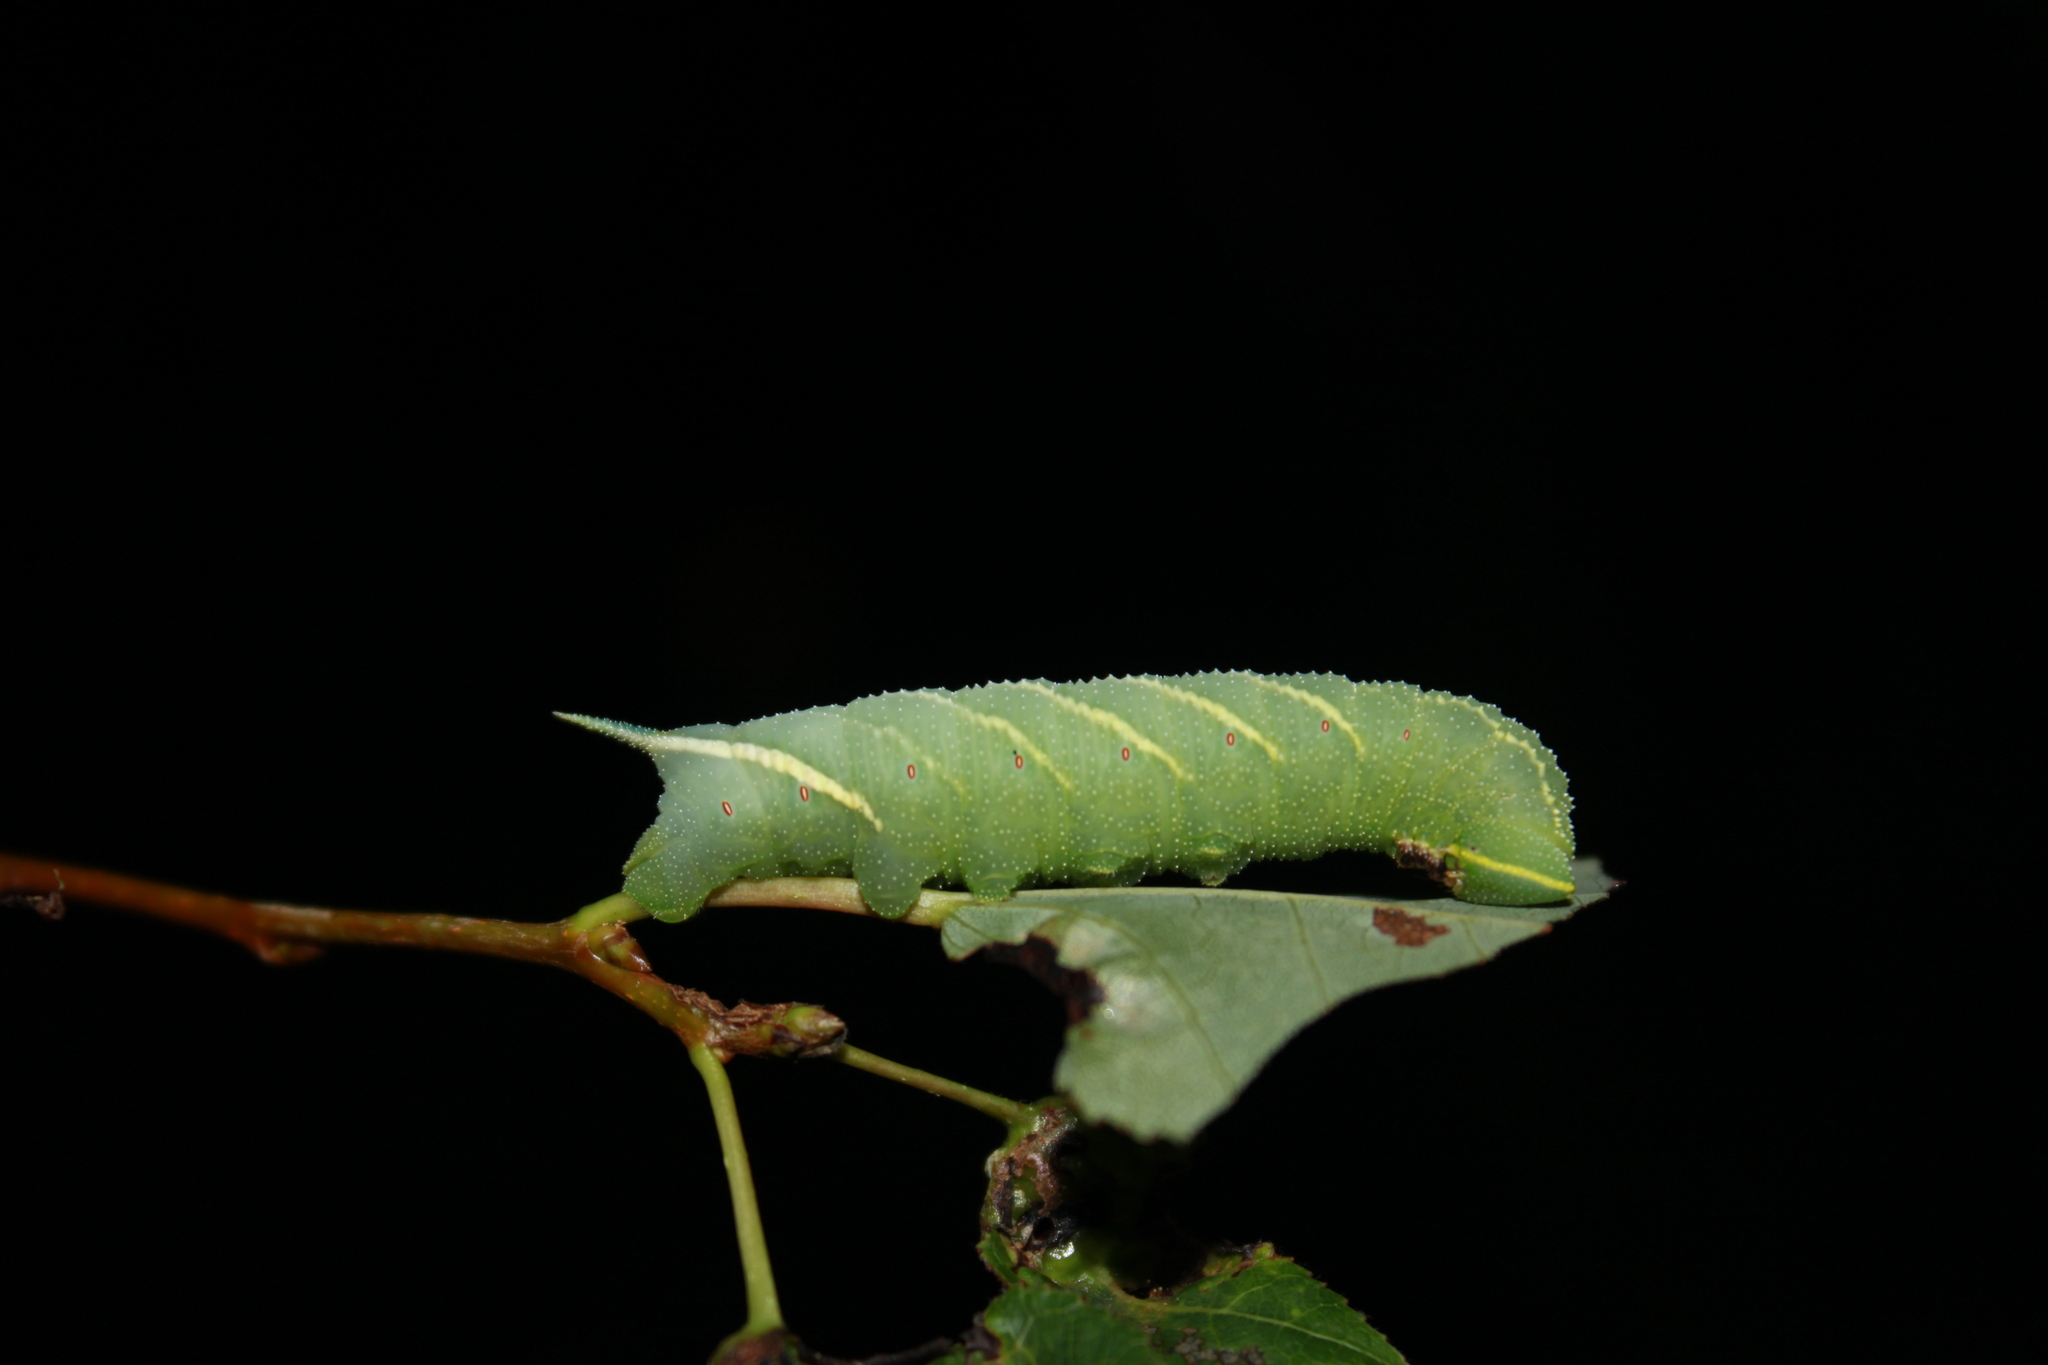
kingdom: Animalia
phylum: Arthropoda
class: Insecta
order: Lepidoptera
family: Sphingidae
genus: Smerinthus
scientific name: Smerinthus jamaicensis
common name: Twin spotted sphinx
